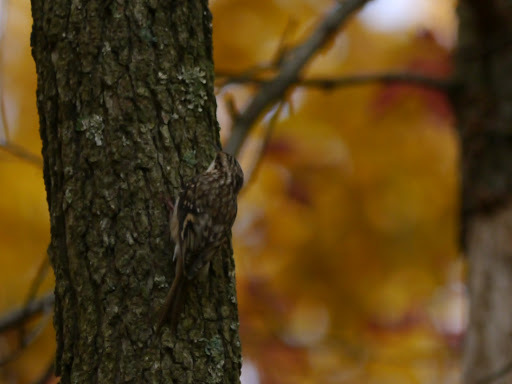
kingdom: Animalia
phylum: Chordata
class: Aves
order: Passeriformes
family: Certhiidae
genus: Certhia
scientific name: Certhia americana
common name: Brown creeper
